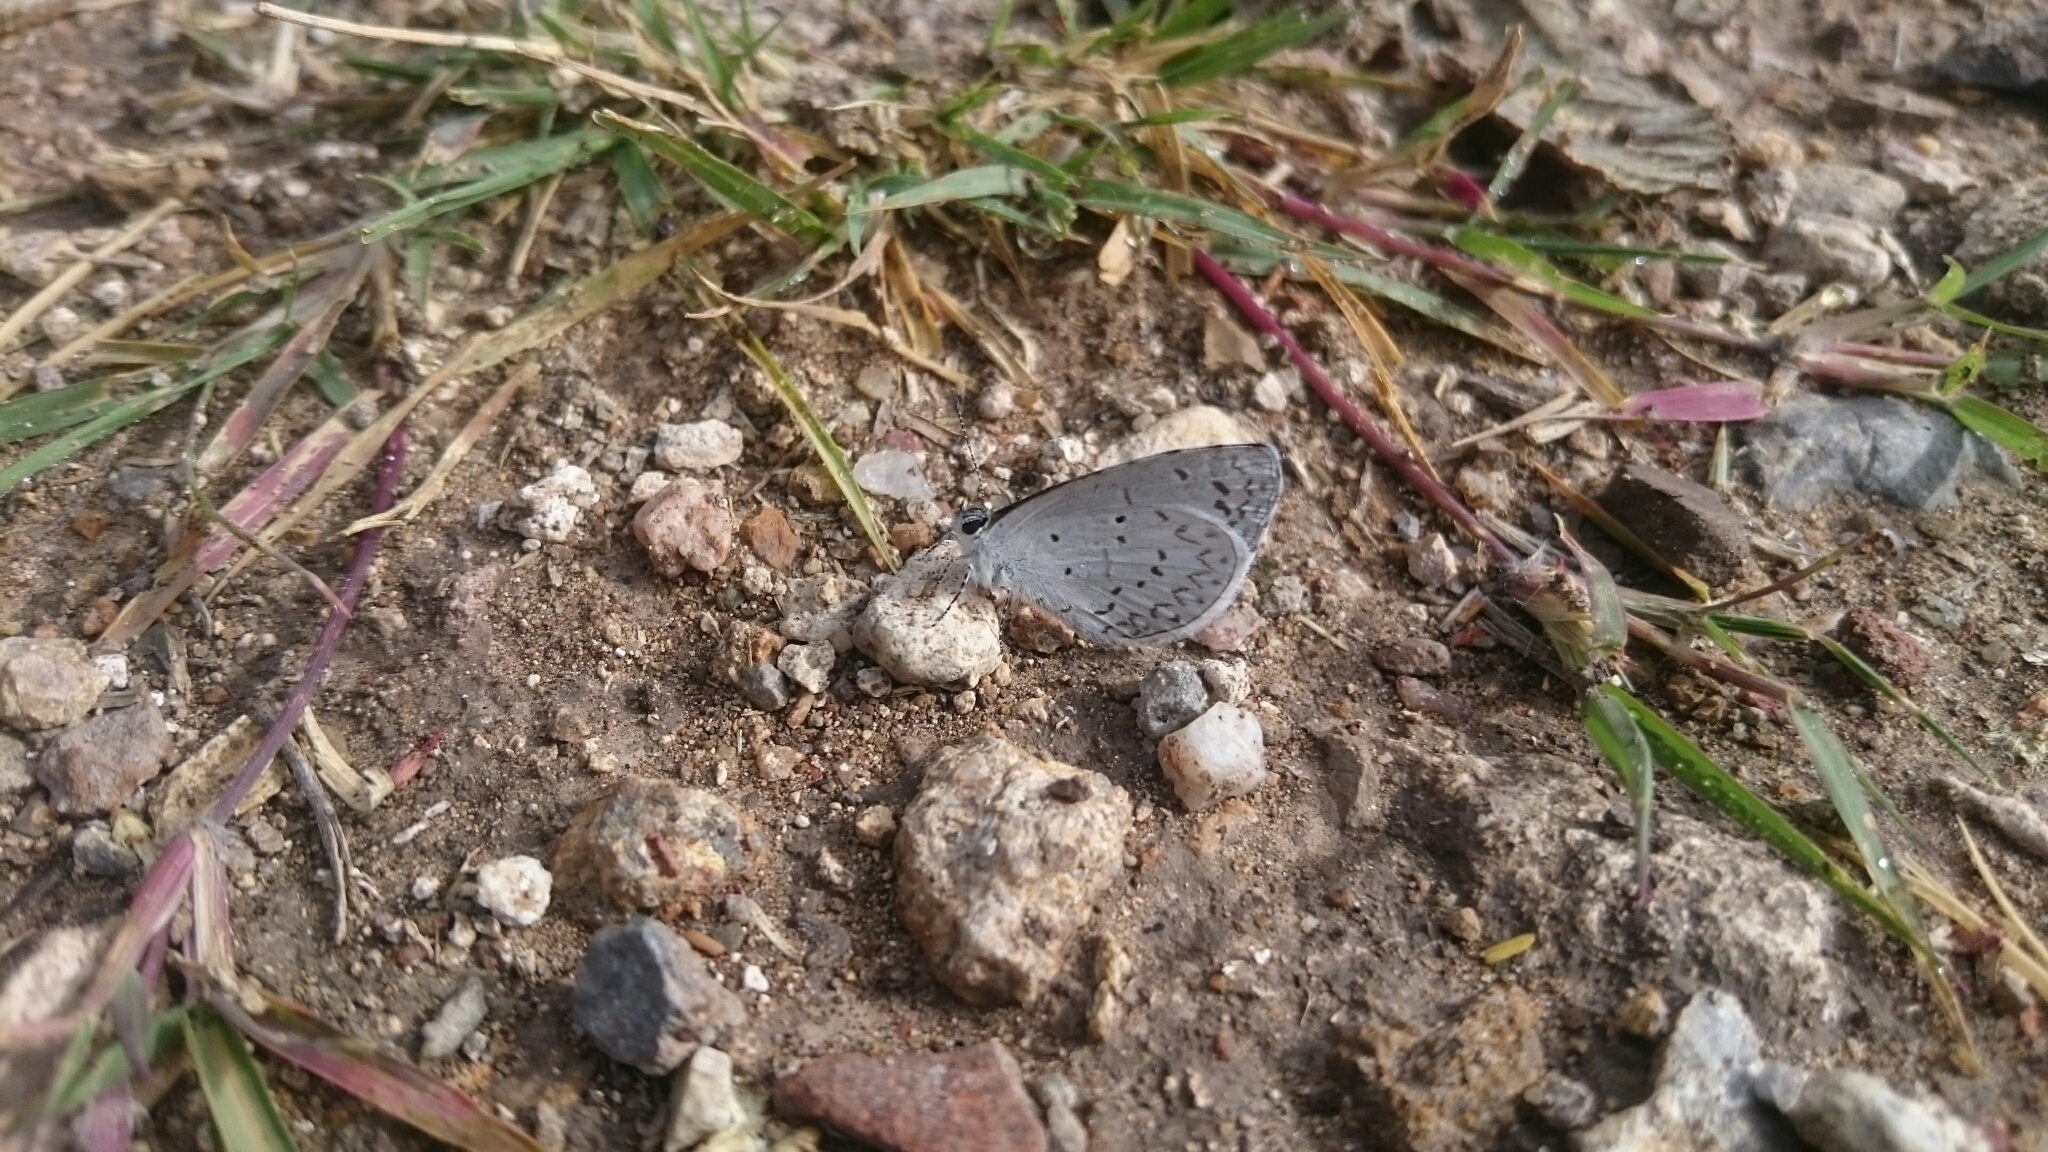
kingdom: Animalia
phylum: Arthropoda
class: Insecta
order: Lepidoptera
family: Lycaenidae
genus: Celastrina
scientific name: Celastrina ladon
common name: Spring azure
